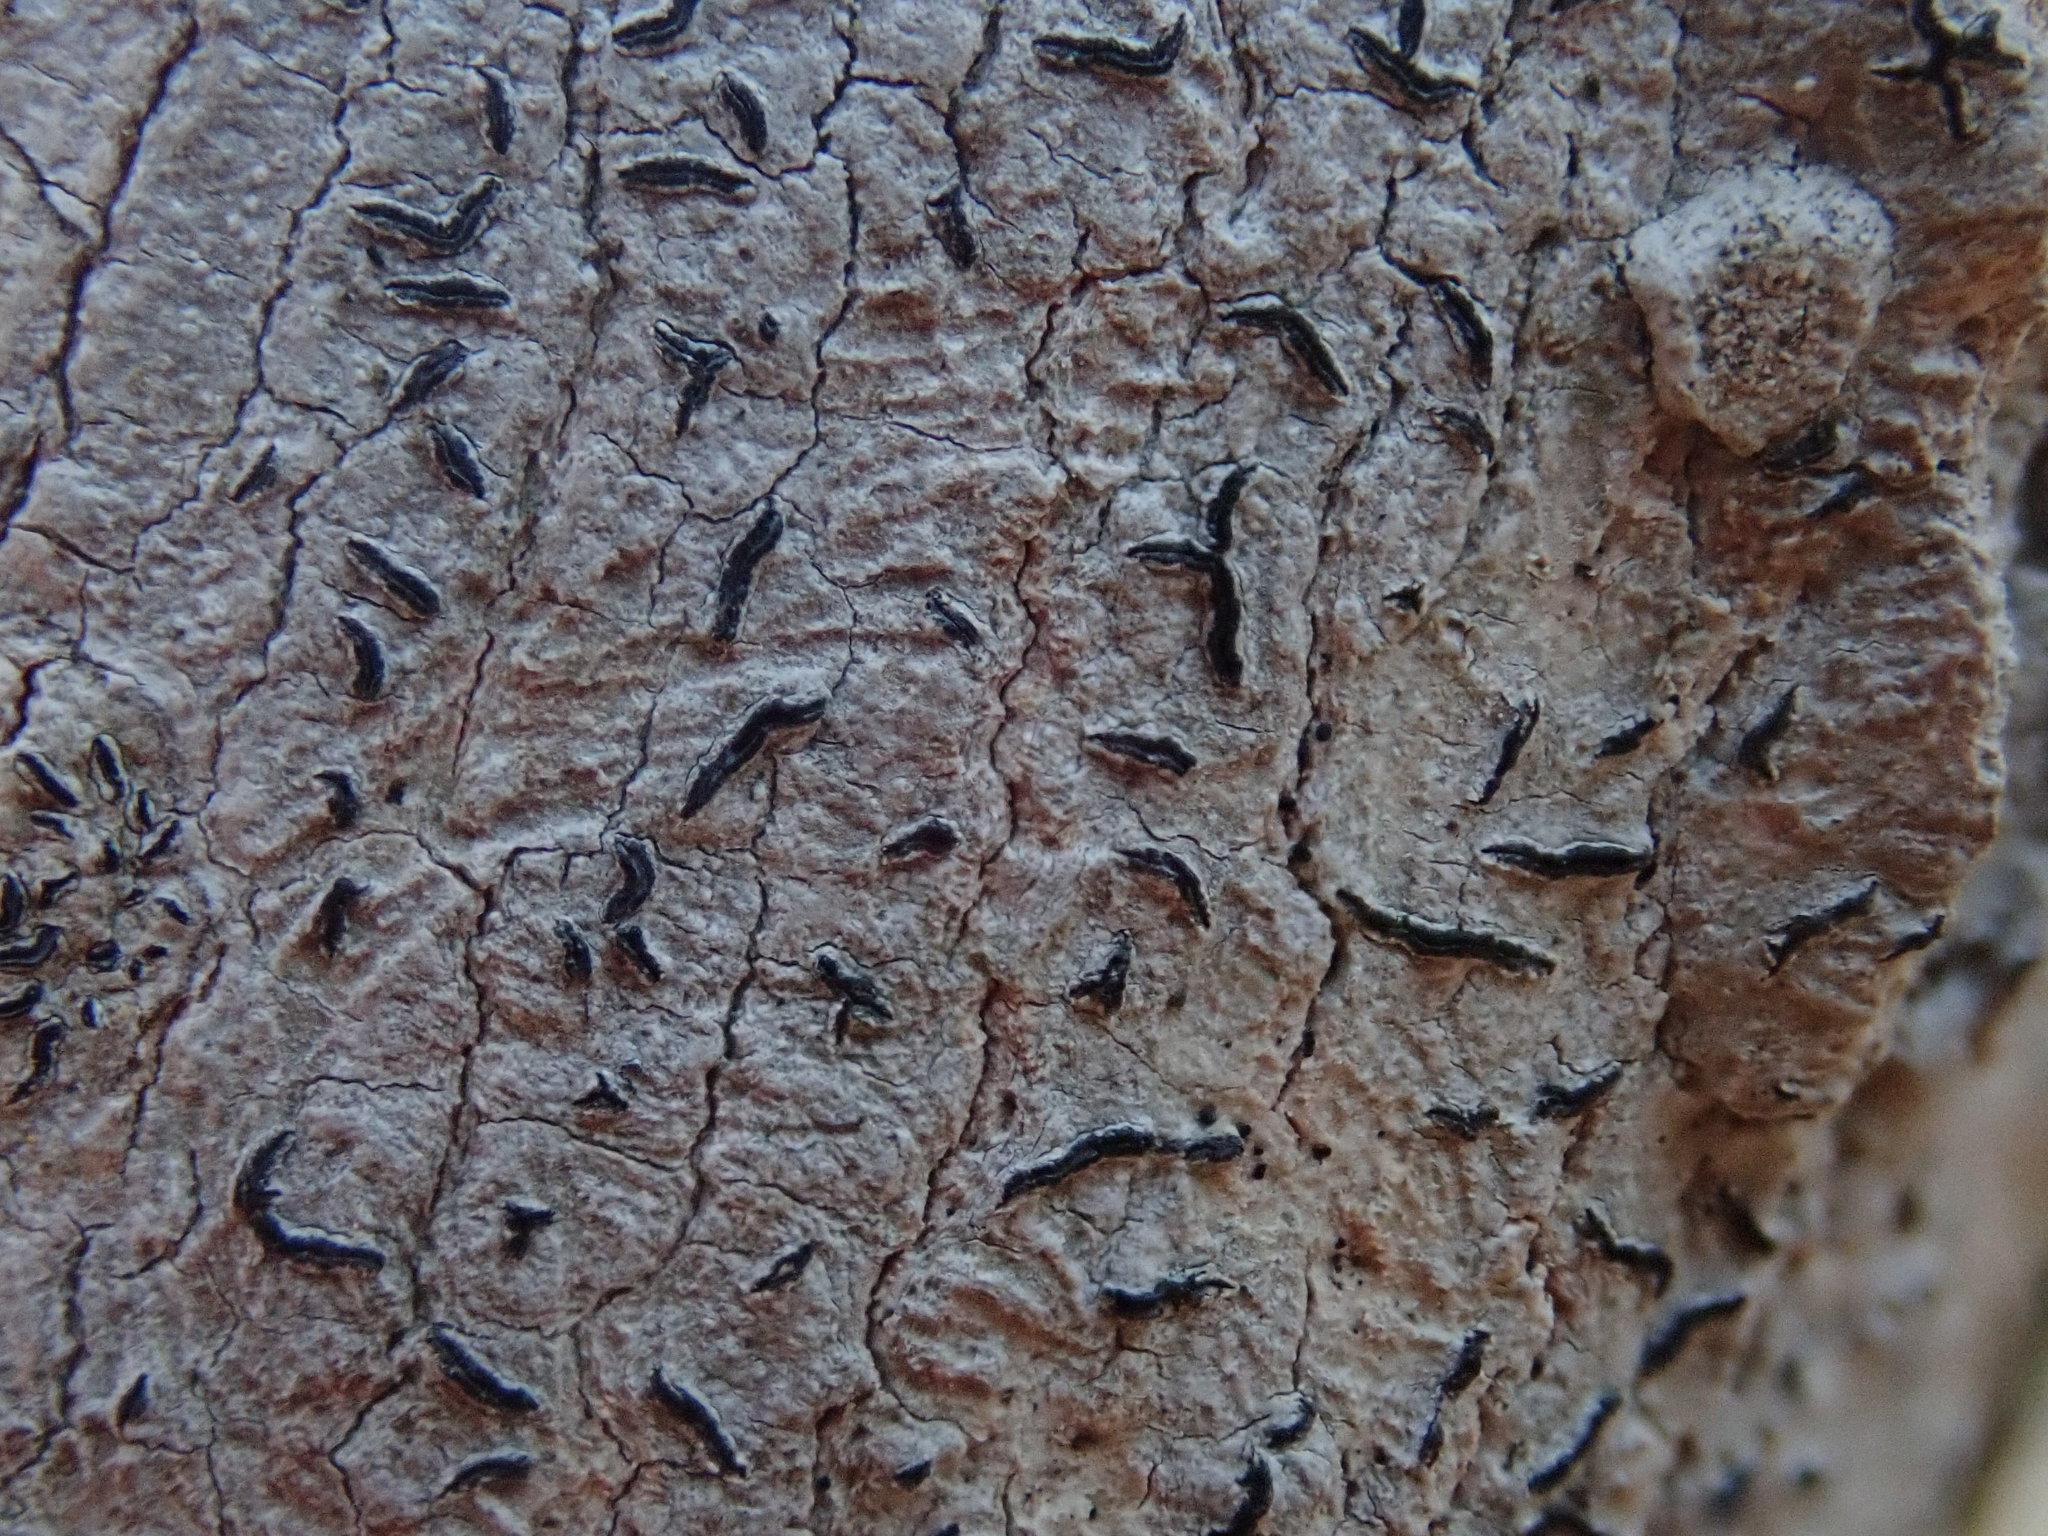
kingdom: Fungi
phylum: Ascomycota
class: Lecanoromycetes
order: Ostropales
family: Graphidaceae
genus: Graphis
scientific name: Graphis scripta
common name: Script lichen
